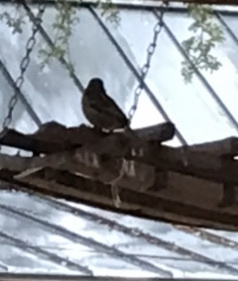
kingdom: Animalia
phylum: Chordata
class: Aves
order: Passeriformes
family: Passeridae
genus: Passer
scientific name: Passer domesticus
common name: House sparrow
